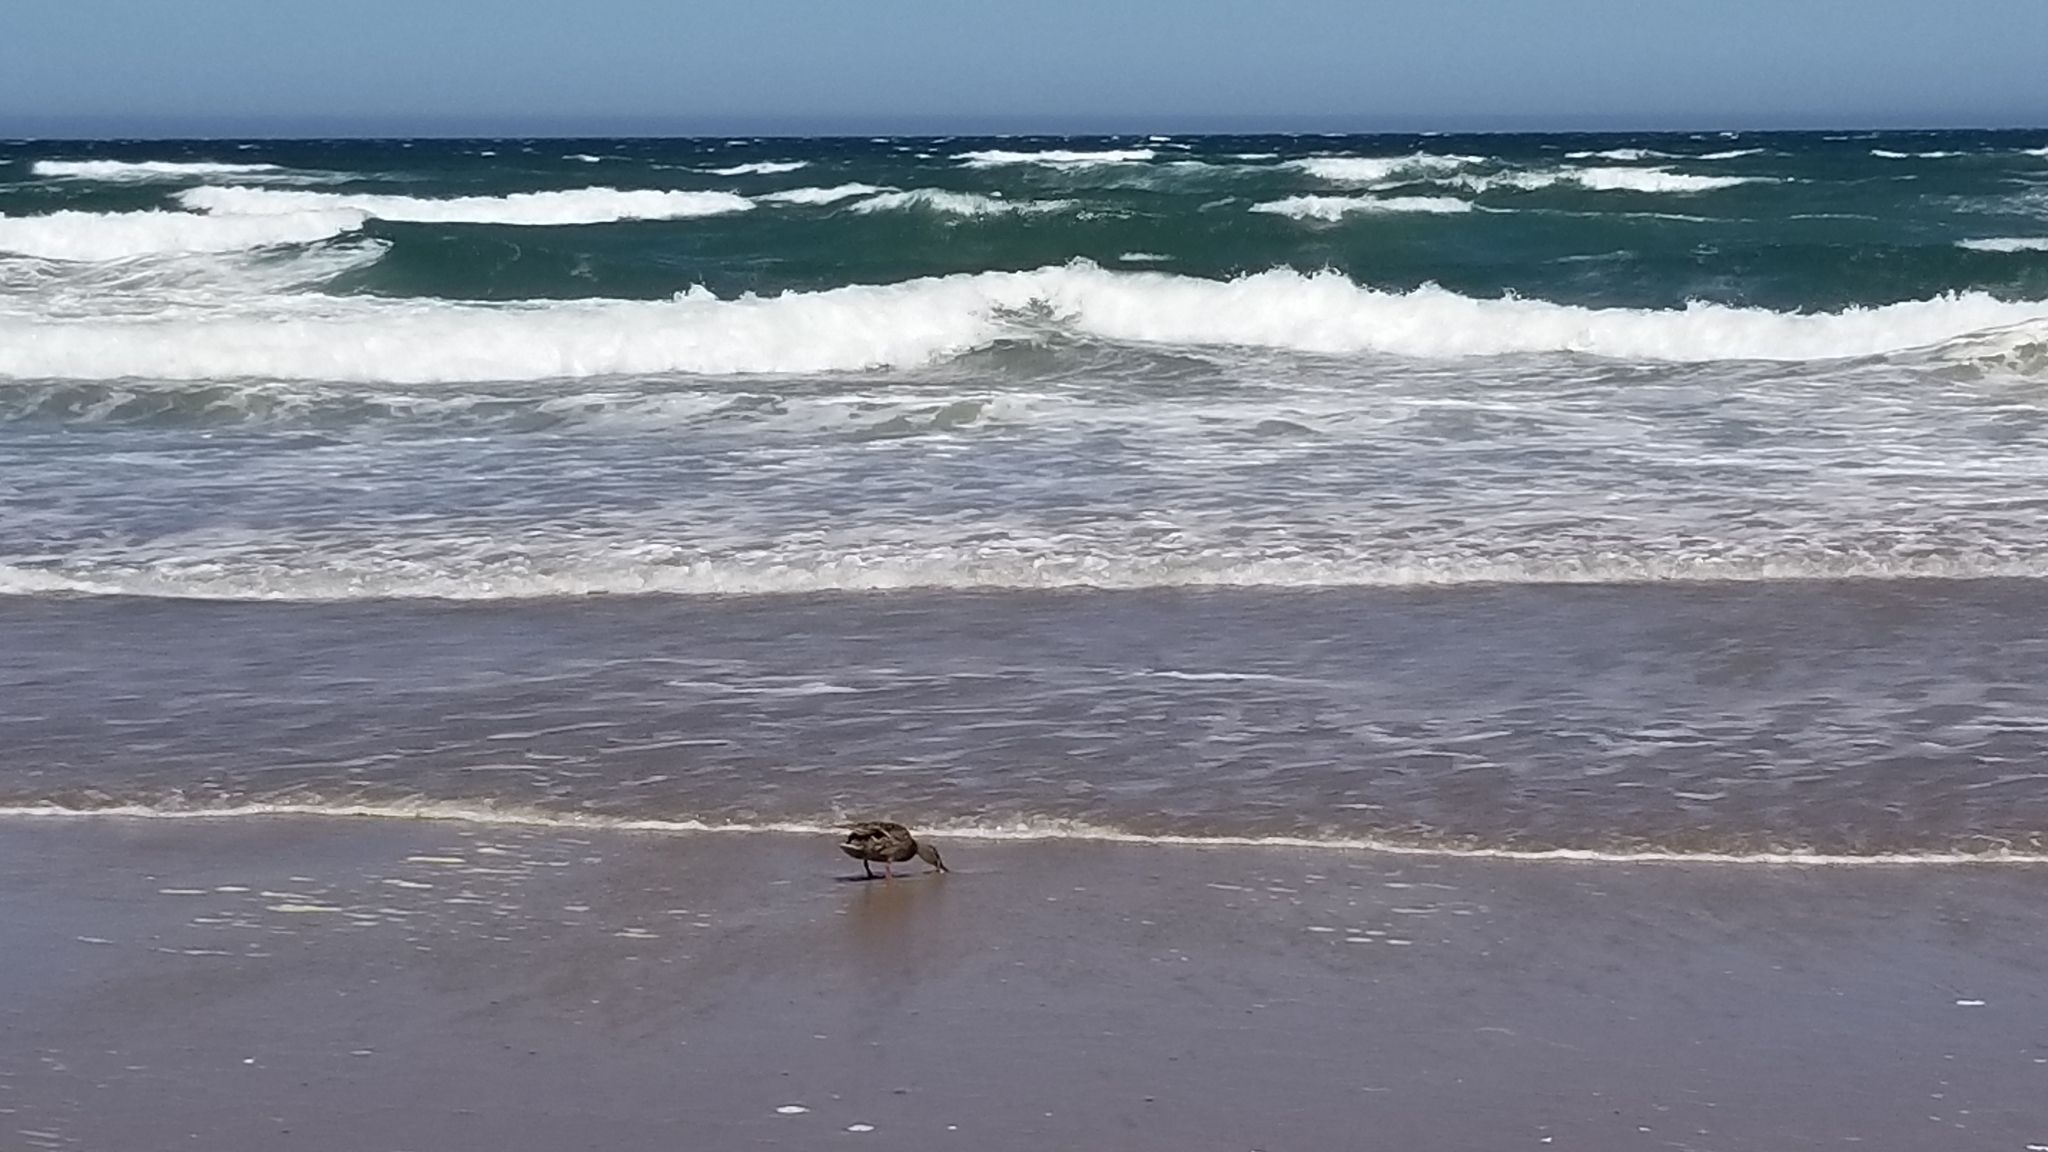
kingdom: Animalia
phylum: Chordata
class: Aves
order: Anseriformes
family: Anatidae
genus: Anas
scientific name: Anas platyrhynchos
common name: Mallard
